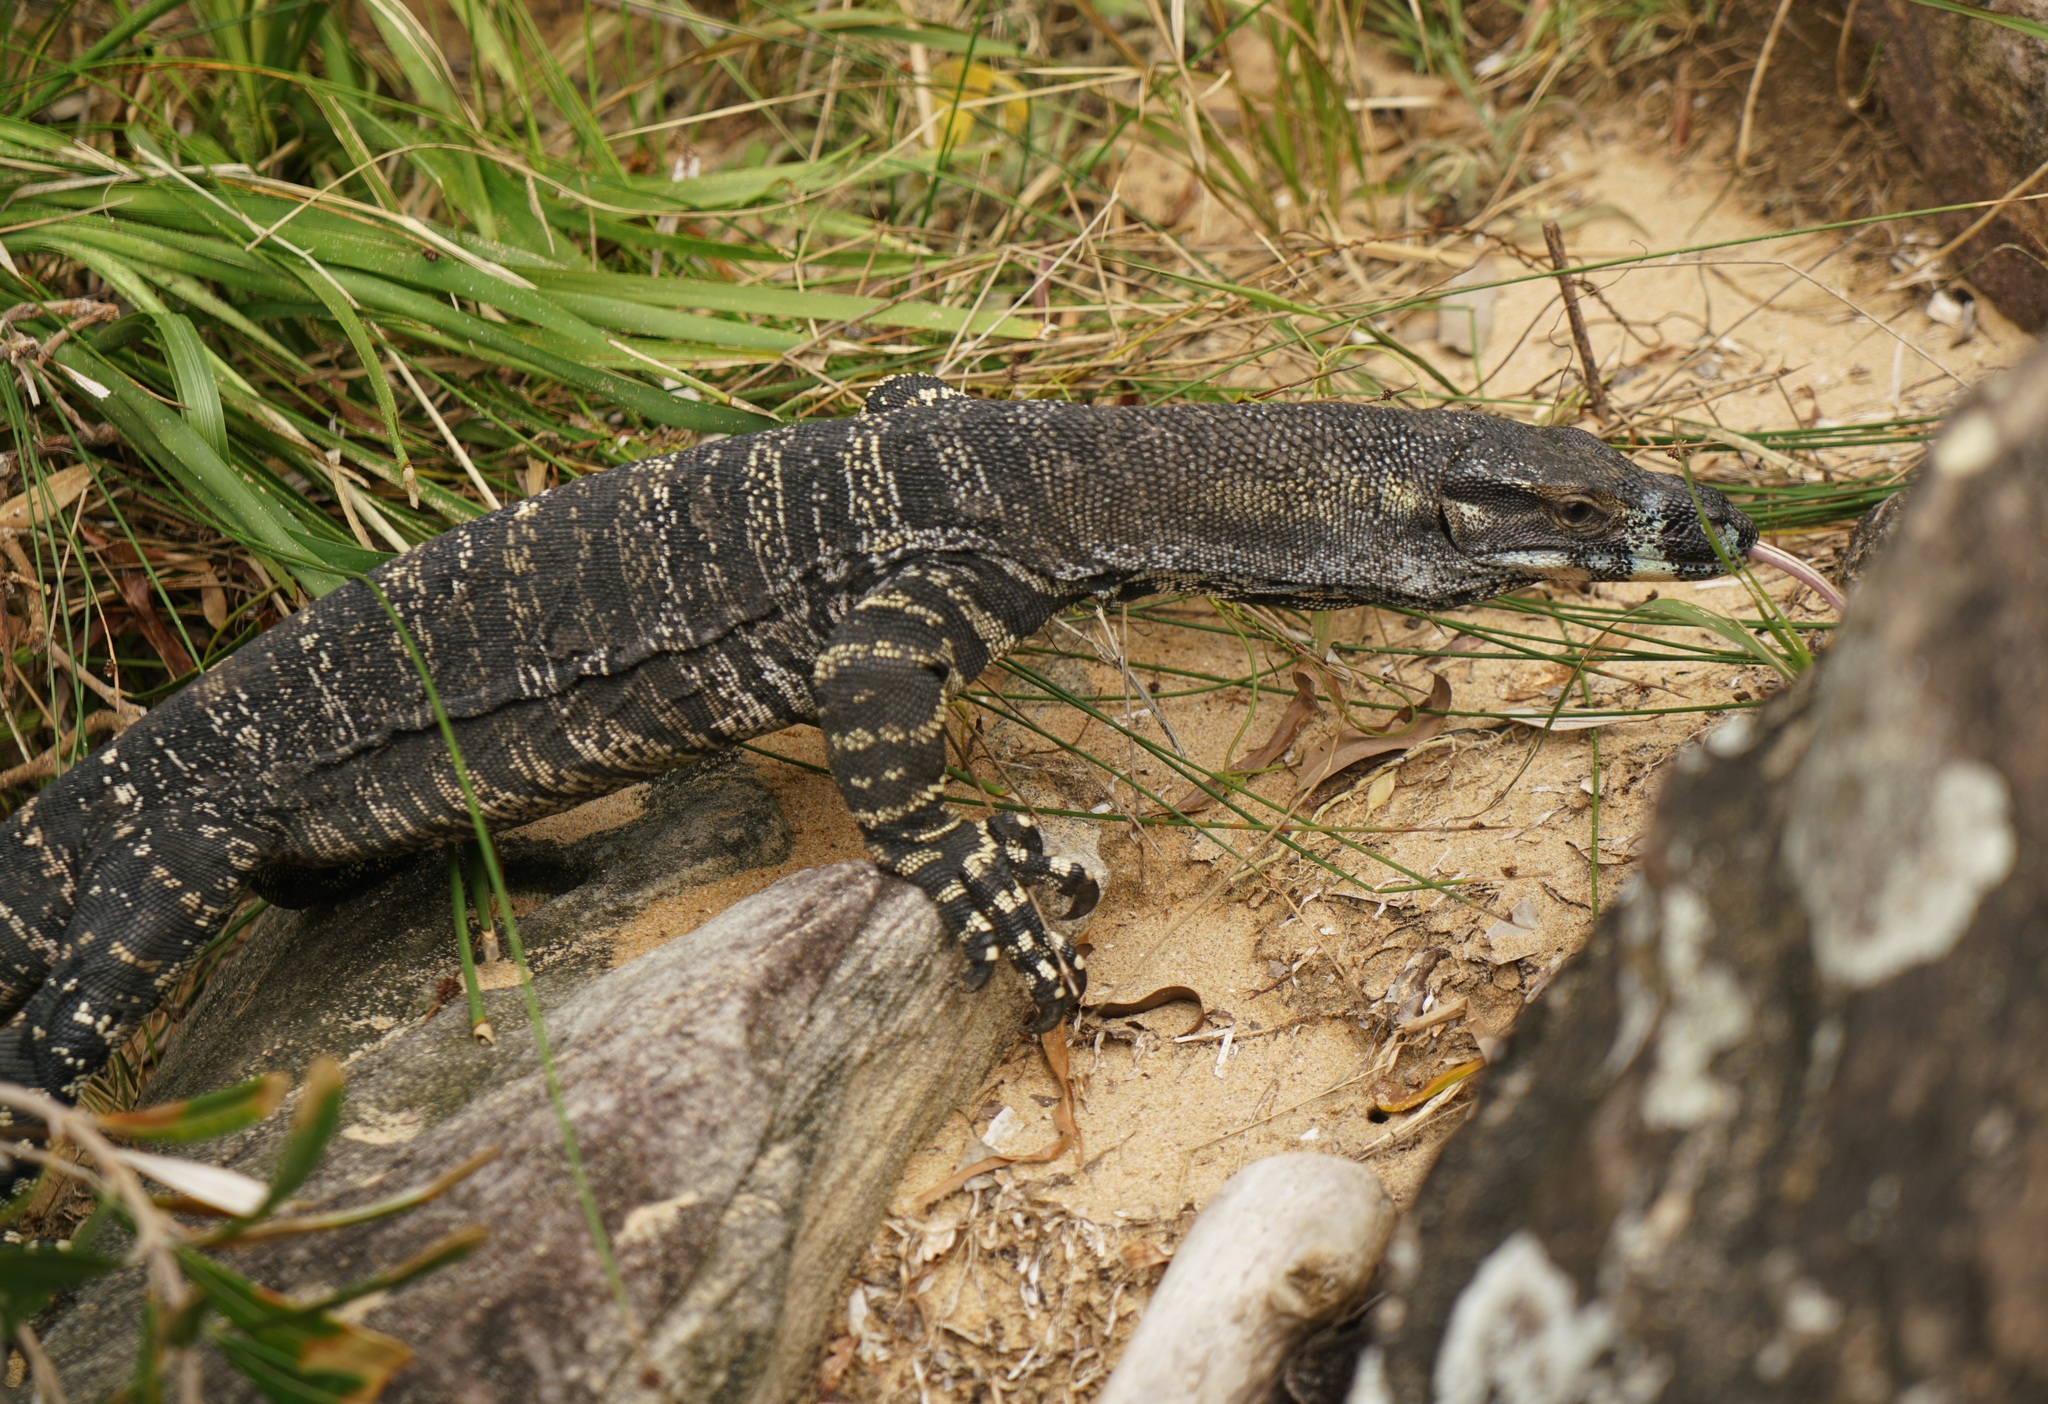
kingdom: Animalia
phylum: Chordata
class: Squamata
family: Varanidae
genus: Varanus
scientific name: Varanus varius
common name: Lace monitor
